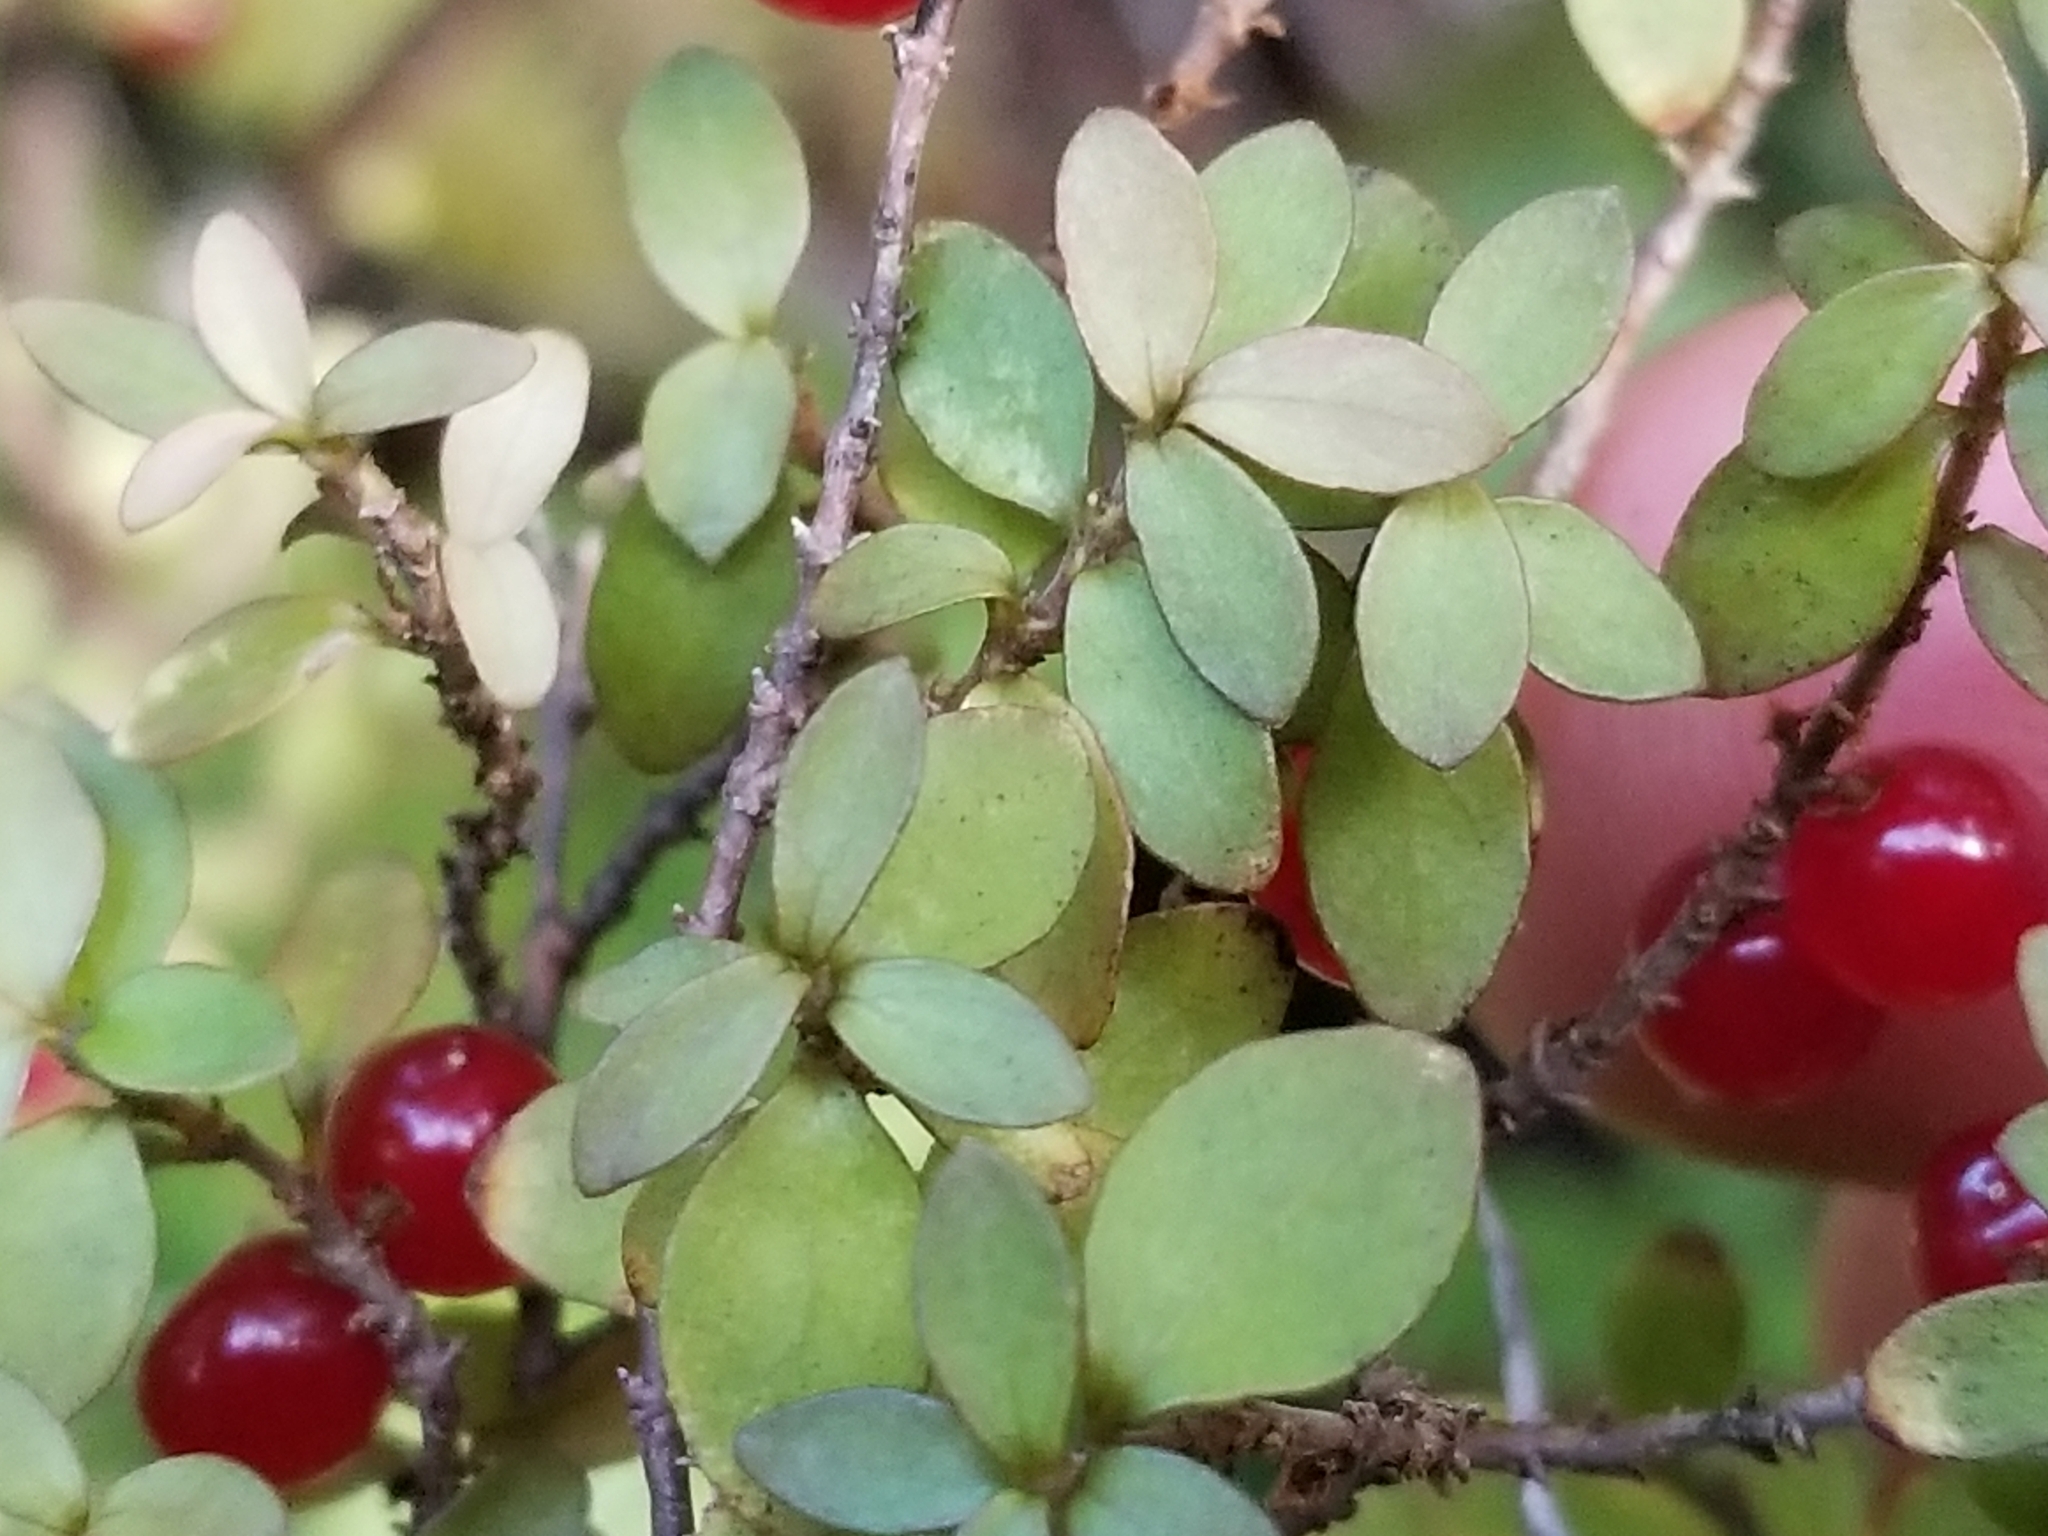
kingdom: Plantae
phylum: Tracheophyta
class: Magnoliopsida
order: Gentianales
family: Rubiaceae
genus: Coprosma
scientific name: Coprosma rhamnoides
